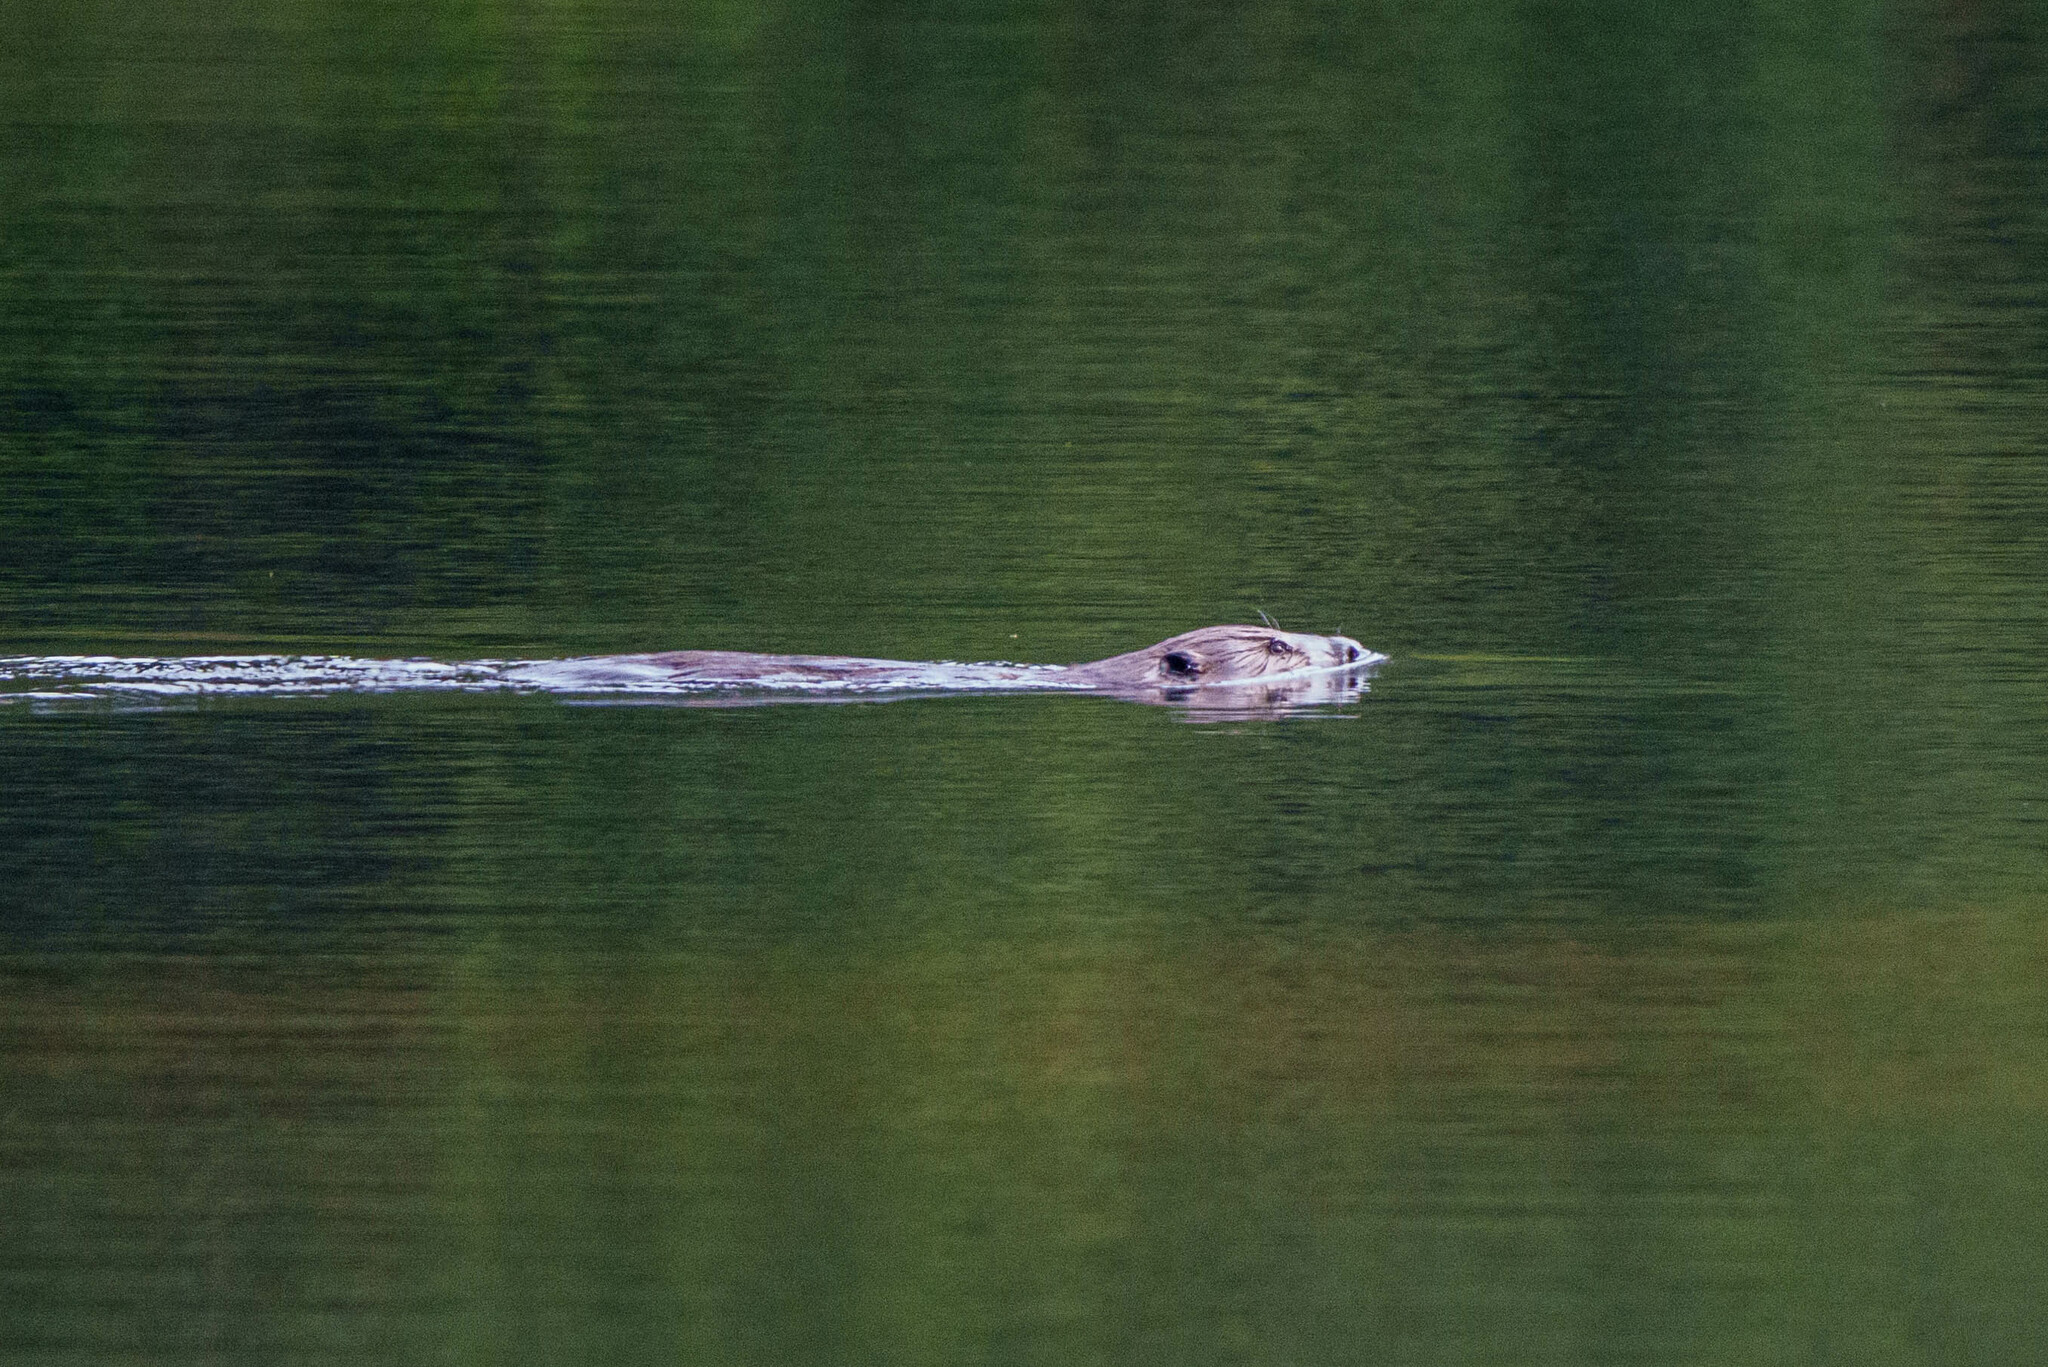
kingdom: Animalia
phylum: Chordata
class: Mammalia
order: Rodentia
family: Castoridae
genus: Castor
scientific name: Castor canadensis
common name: American beaver
